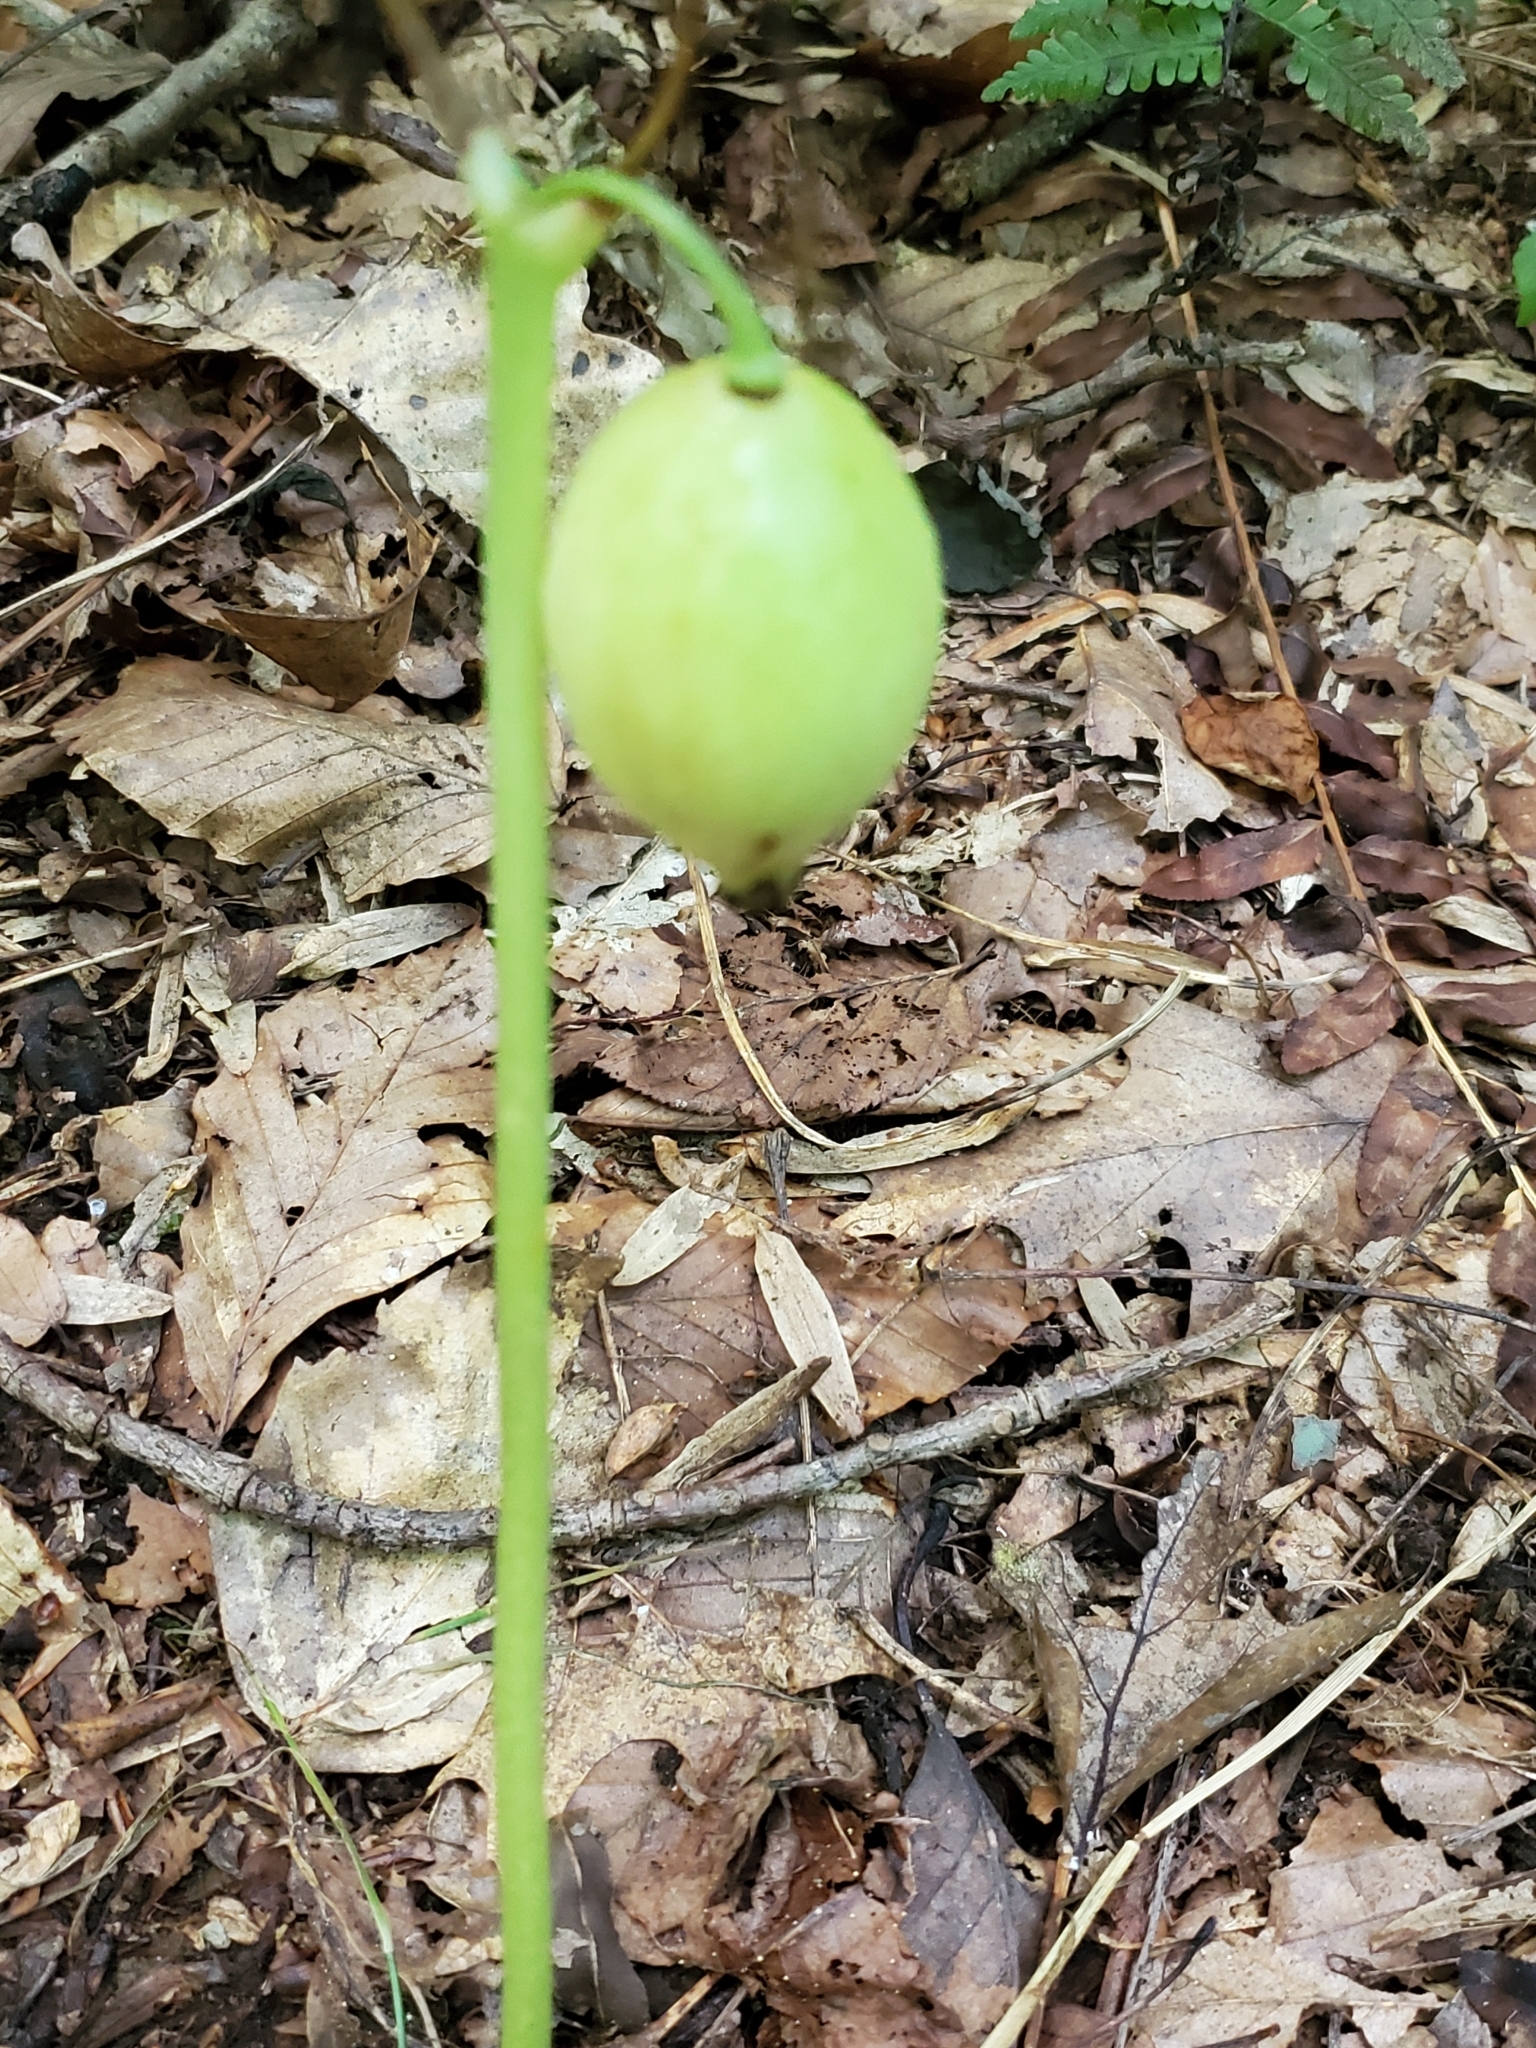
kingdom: Plantae
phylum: Tracheophyta
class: Magnoliopsida
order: Ranunculales
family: Berberidaceae
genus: Podophyllum
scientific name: Podophyllum peltatum
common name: Wild mandrake
